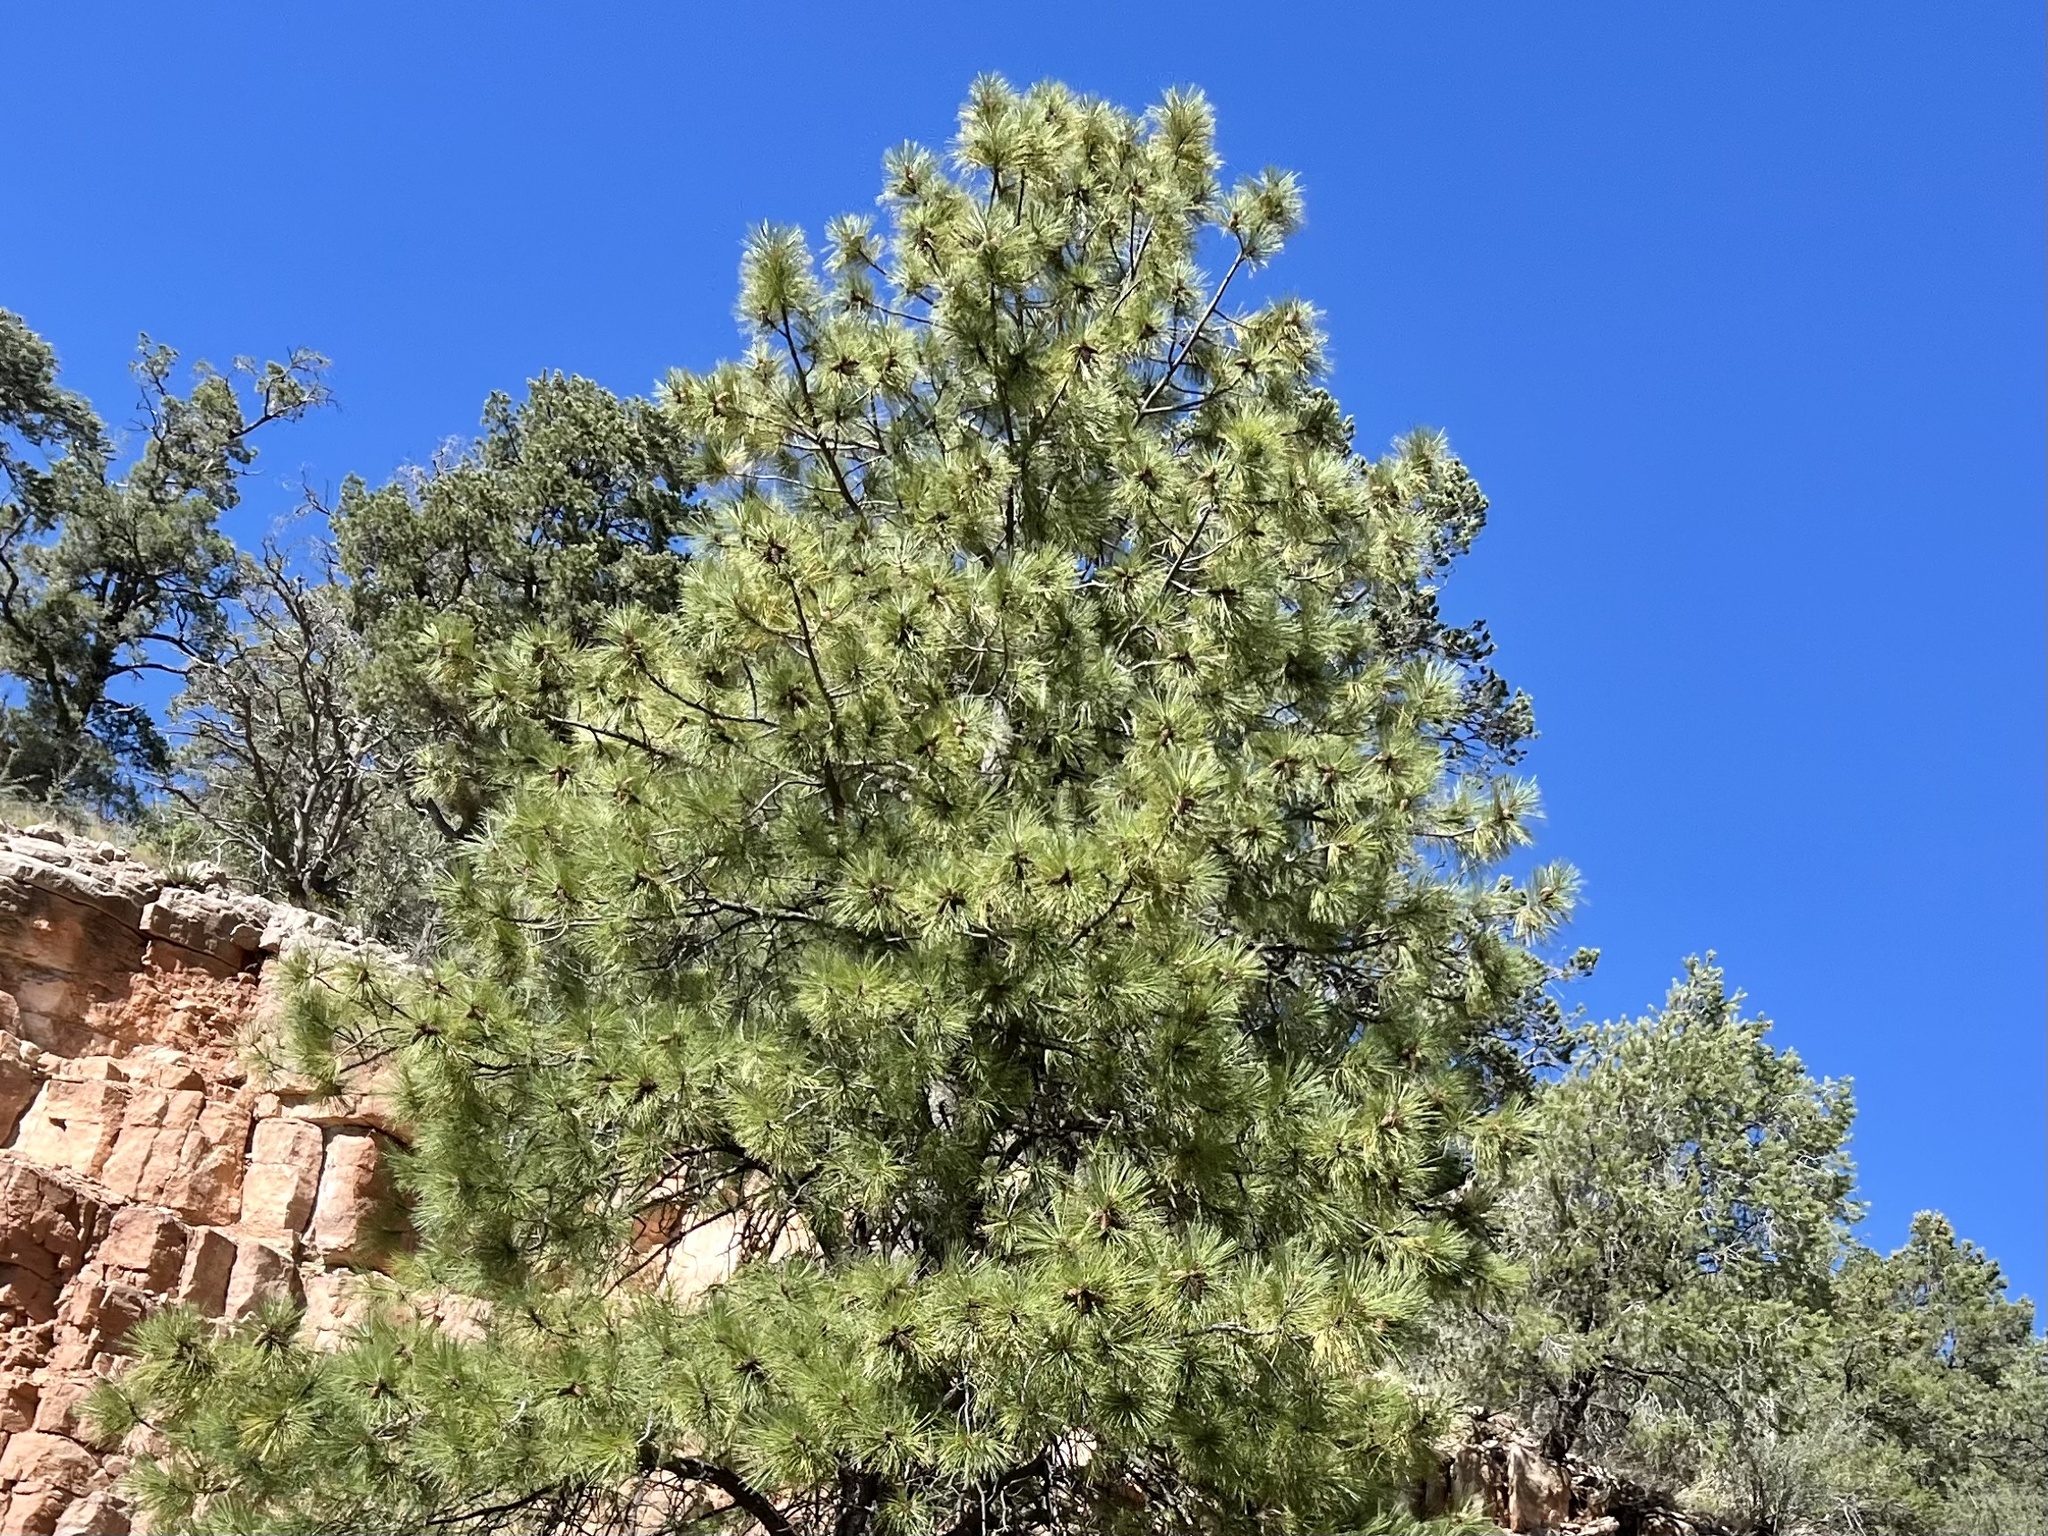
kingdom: Plantae
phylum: Tracheophyta
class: Pinopsida
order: Pinales
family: Pinaceae
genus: Pinus
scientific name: Pinus ponderosa
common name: Western yellow-pine
